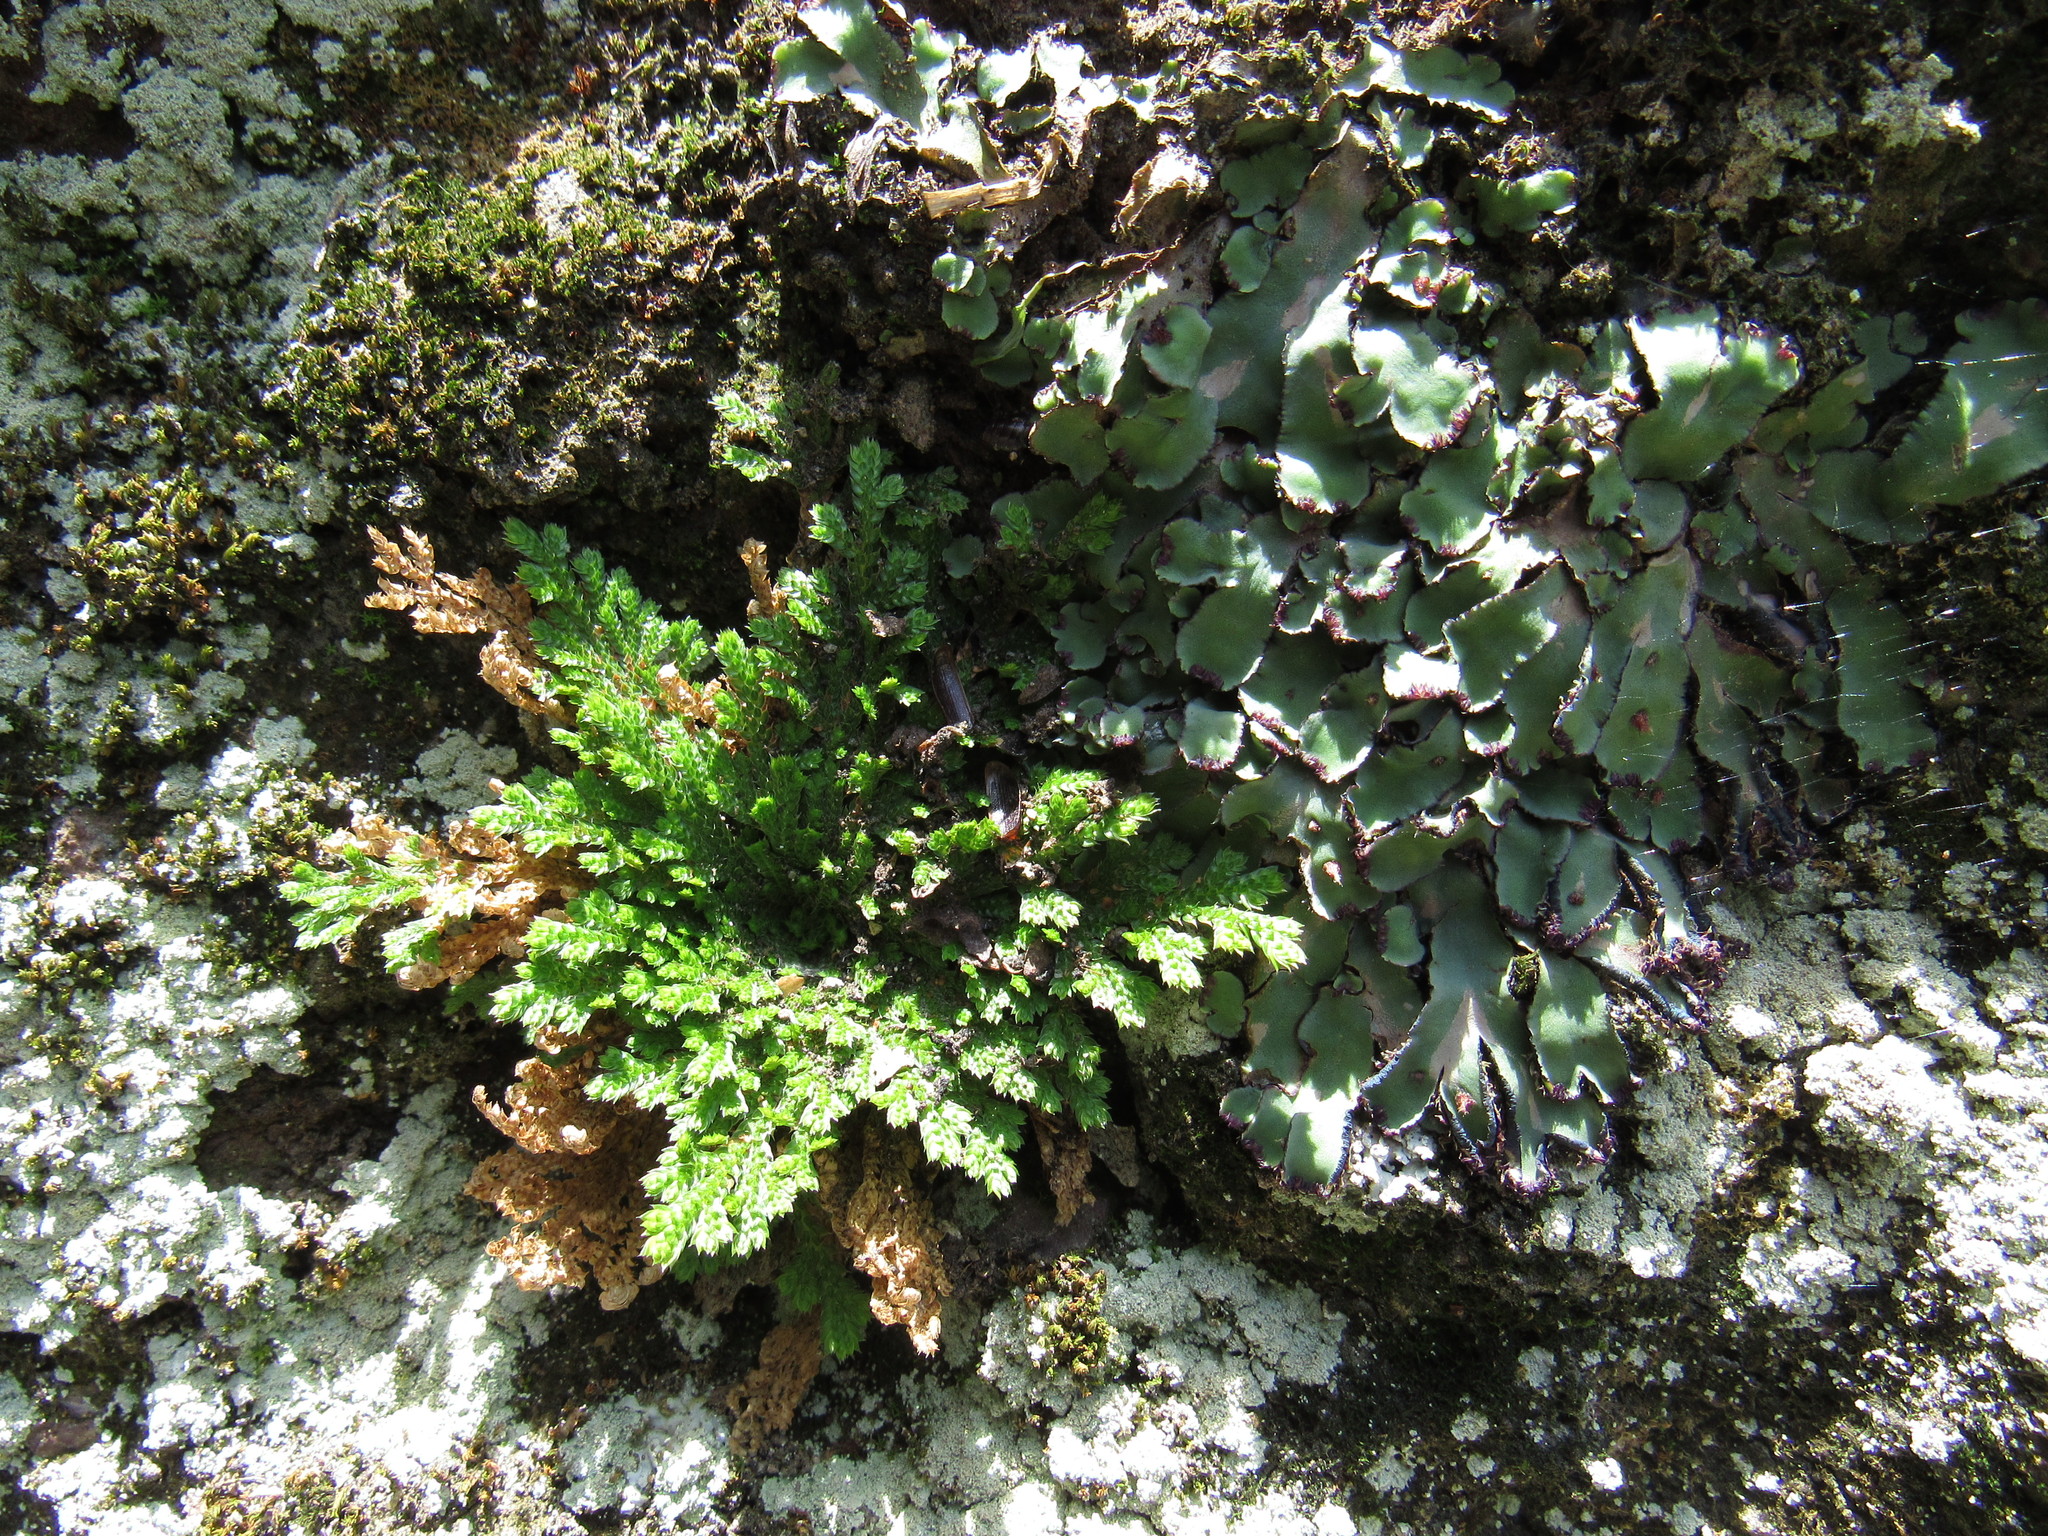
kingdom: Plantae
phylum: Tracheophyta
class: Lycopodiopsida
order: Selaginellales
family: Selaginellaceae
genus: Selaginella
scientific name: Selaginella lepidophylla
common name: Rose-of-jericho
